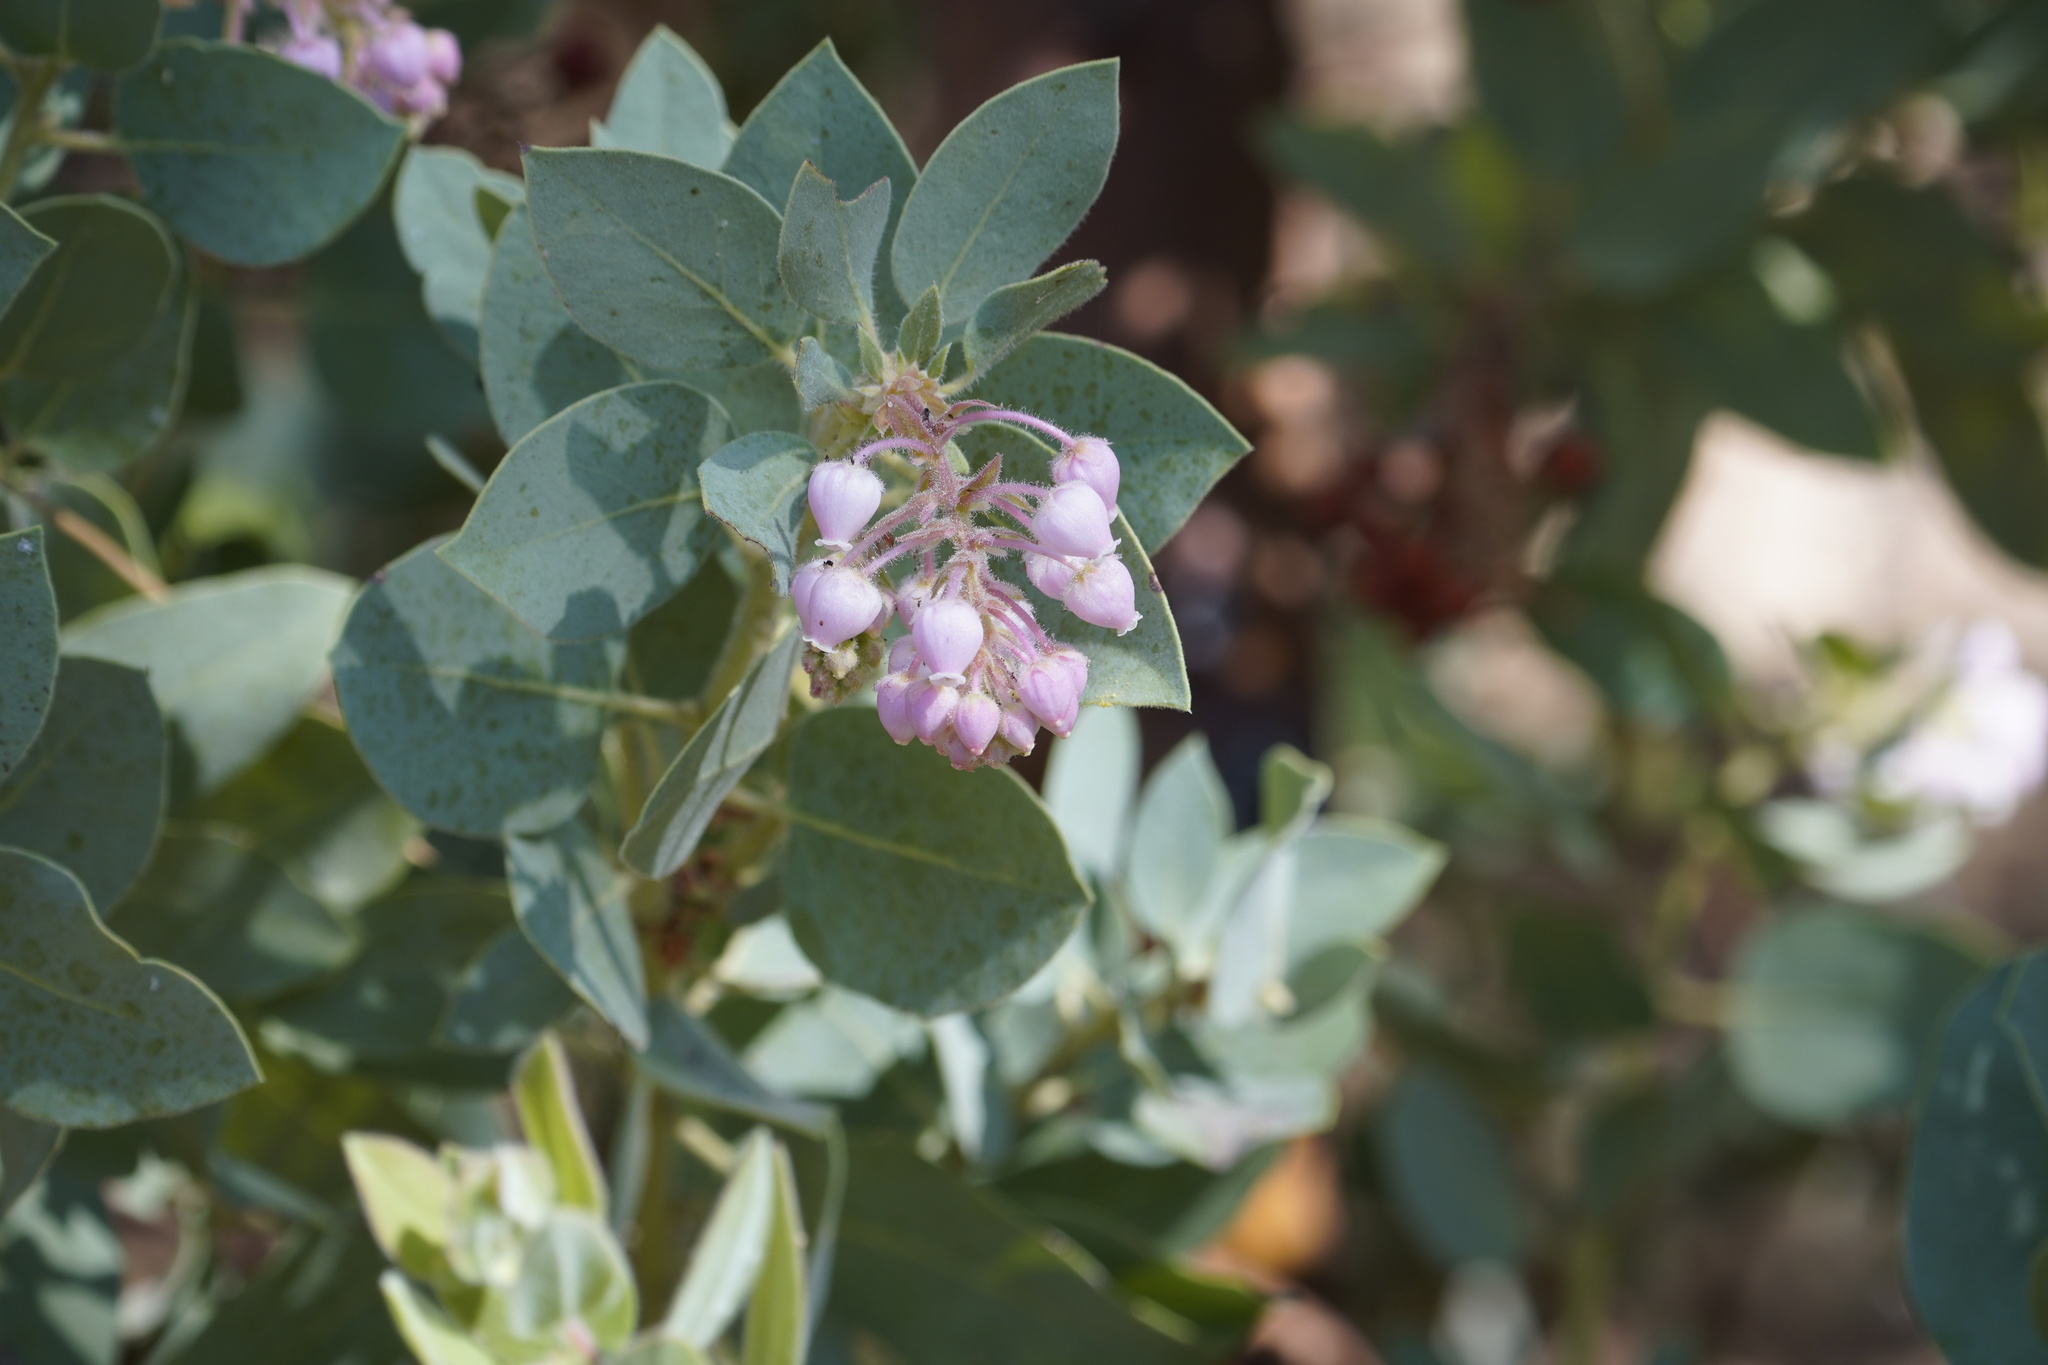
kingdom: Plantae
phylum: Tracheophyta
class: Magnoliopsida
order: Ericales
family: Ericaceae
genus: Arctostaphylos
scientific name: Arctostaphylos pringlei
